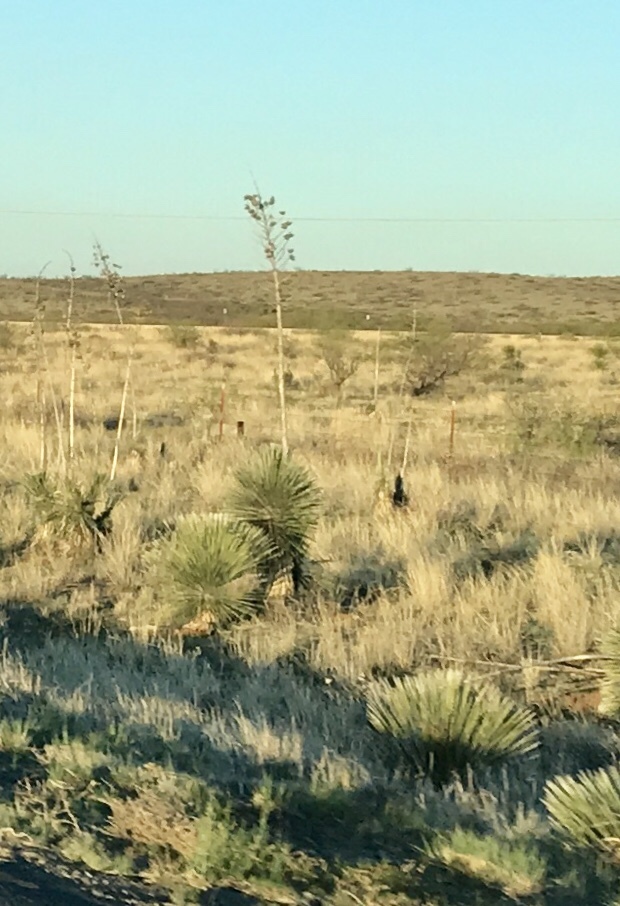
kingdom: Plantae
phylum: Tracheophyta
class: Liliopsida
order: Asparagales
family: Asparagaceae
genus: Yucca
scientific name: Yucca elata
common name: Palmella
